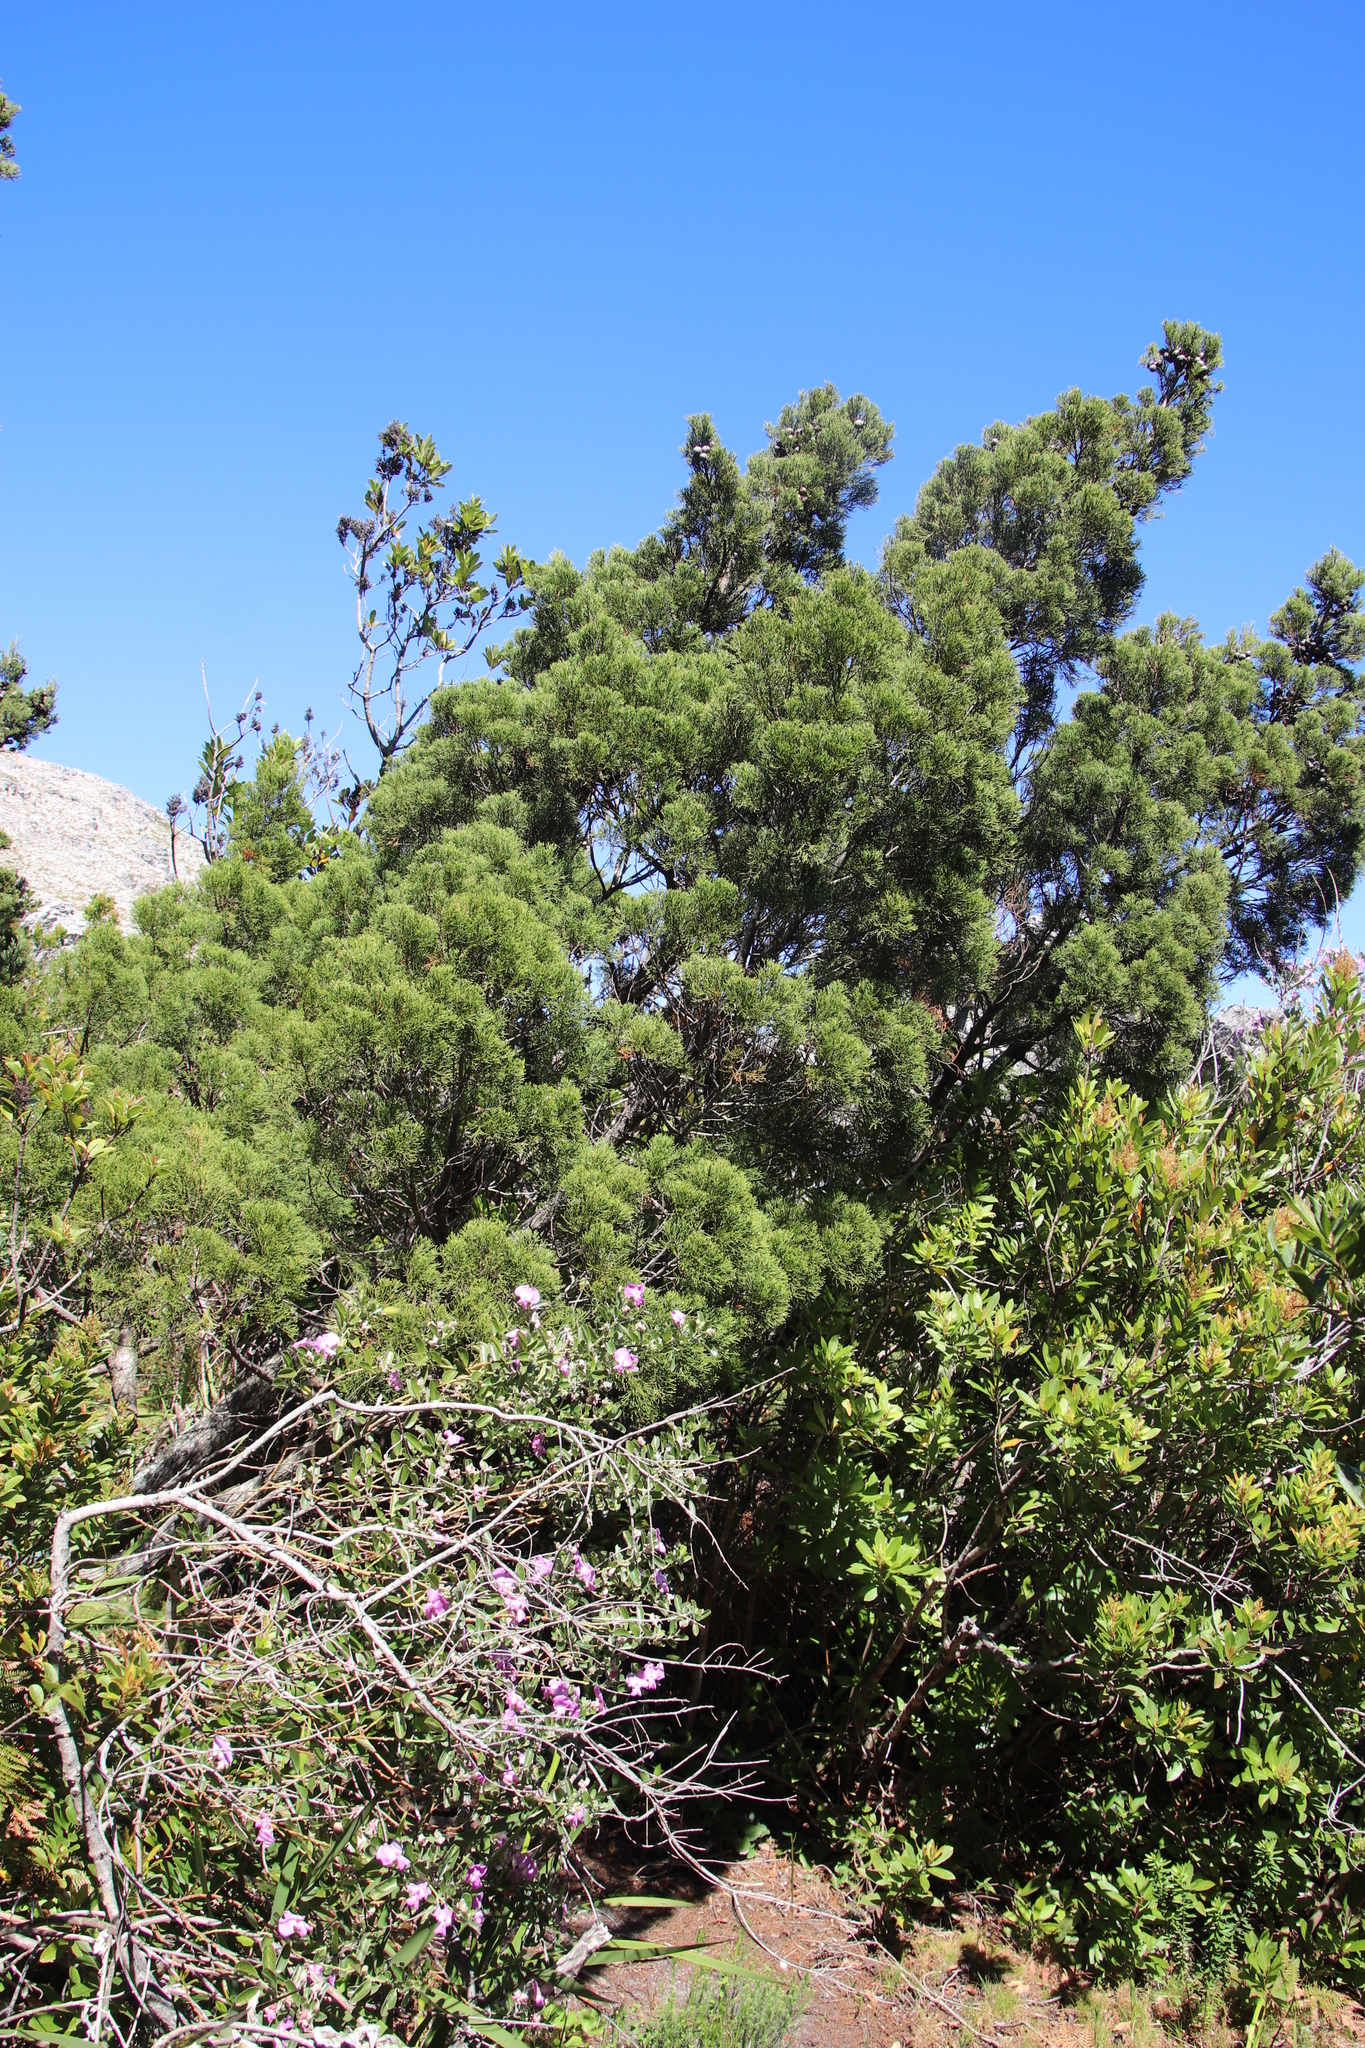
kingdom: Plantae
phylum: Tracheophyta
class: Pinopsida
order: Pinales
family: Cupressaceae
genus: Widdringtonia
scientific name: Widdringtonia nodiflora
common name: Cape cypress
